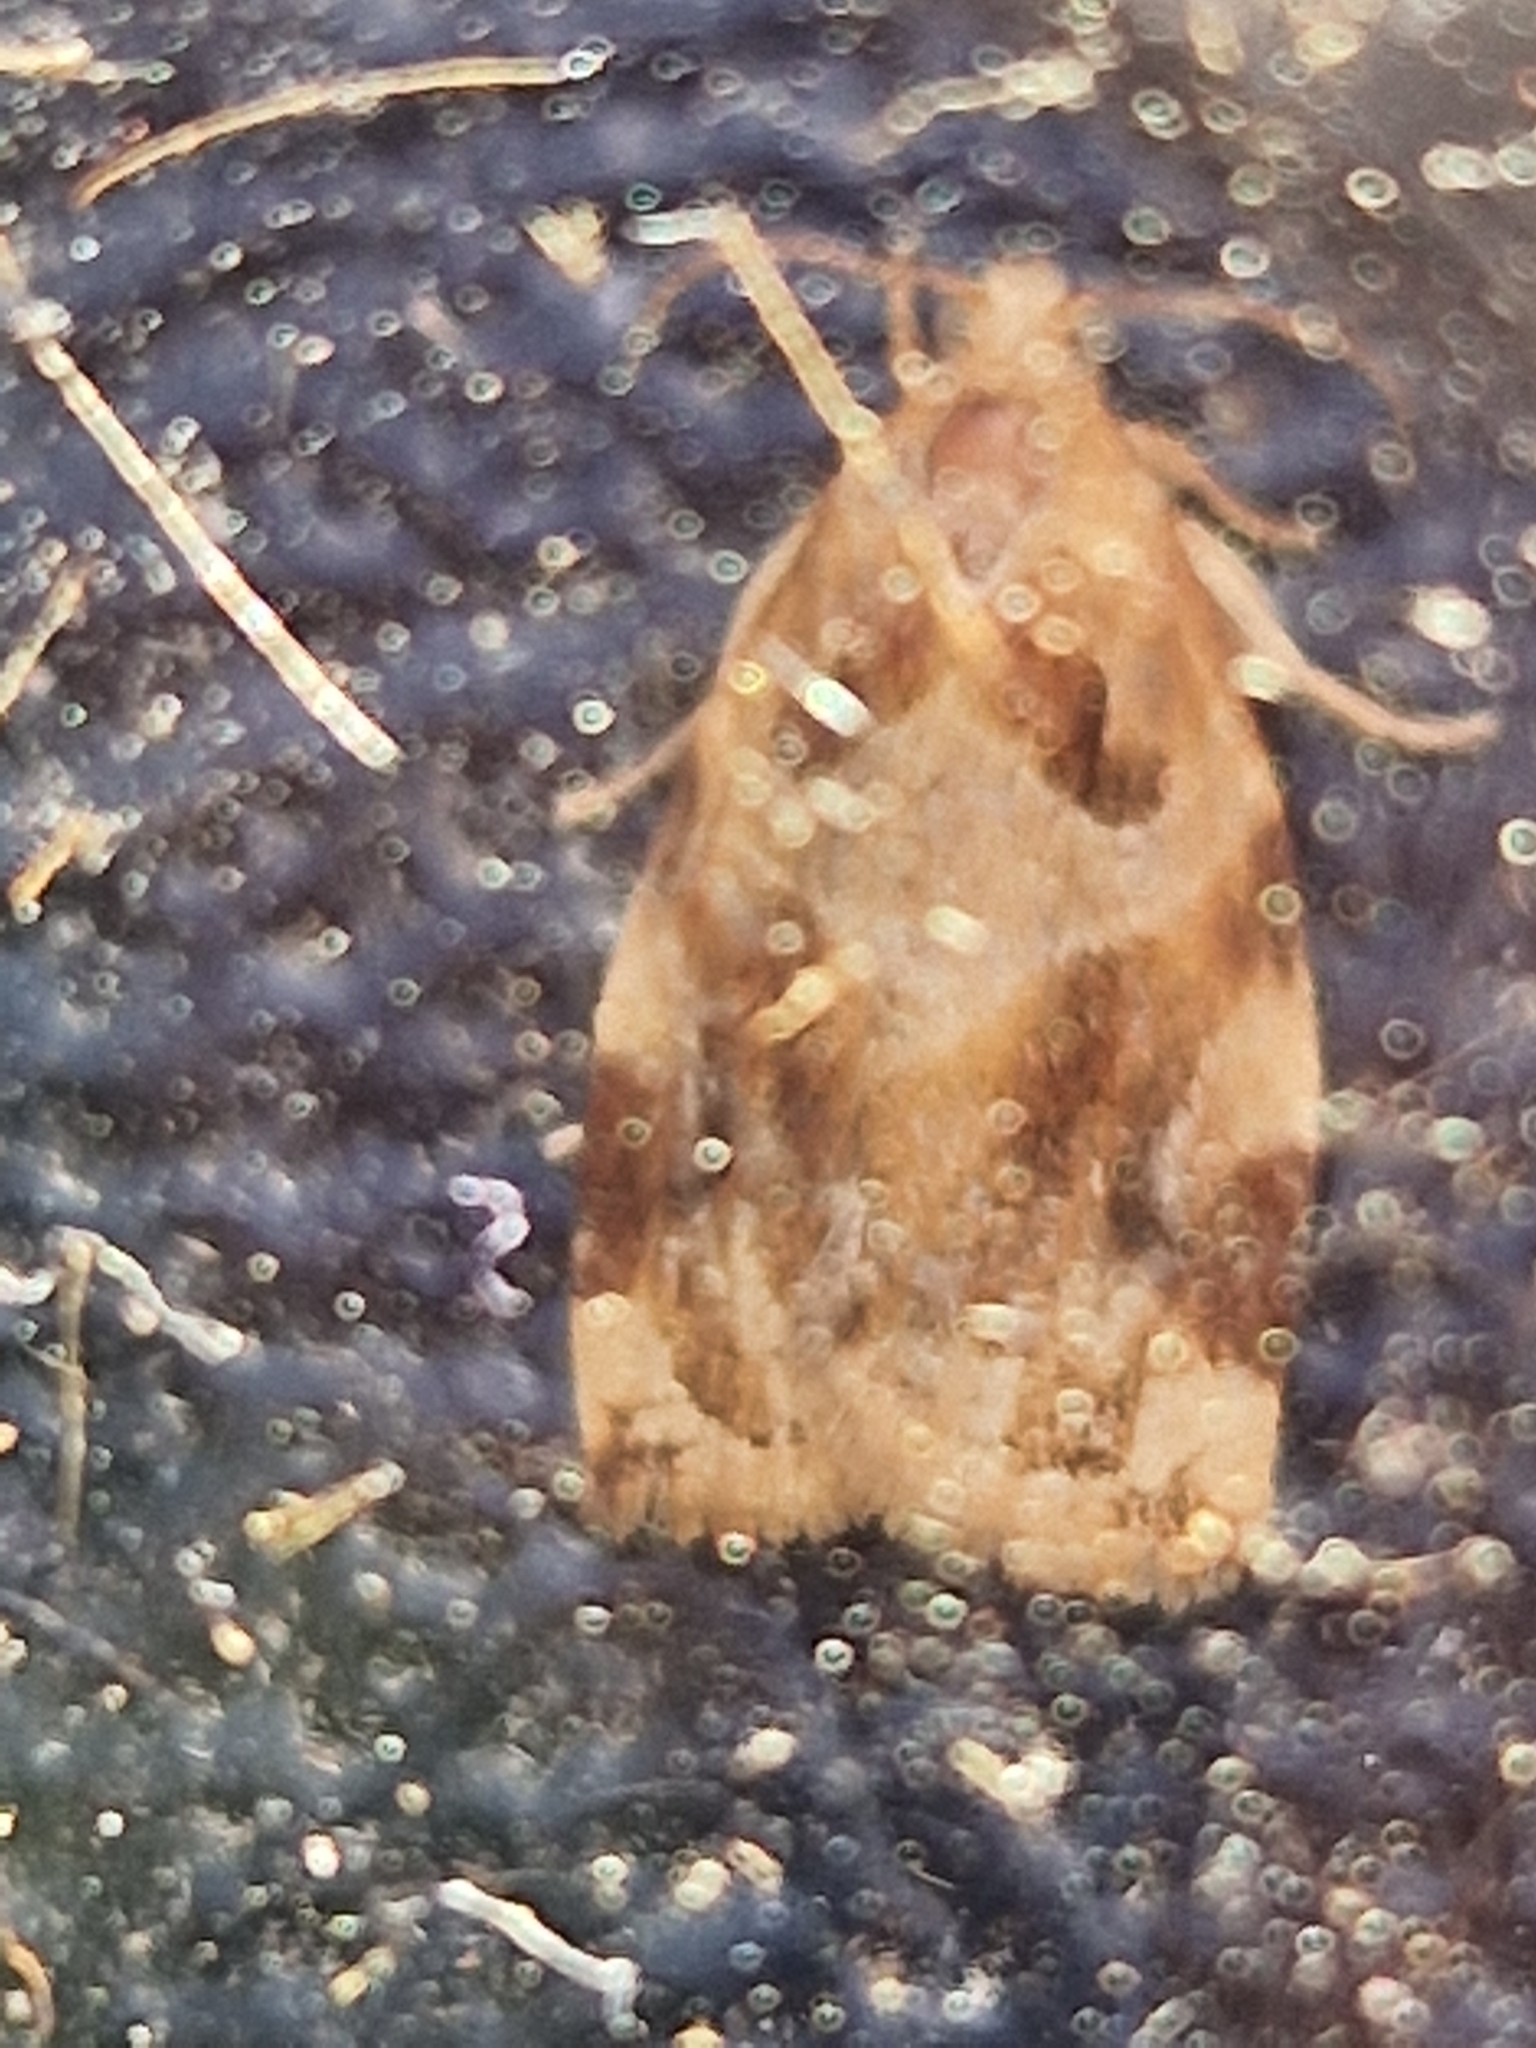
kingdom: Animalia
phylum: Arthropoda
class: Insecta
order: Lepidoptera
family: Tortricidae
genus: Archips
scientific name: Archips xylosteana
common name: Variegated golden tortrix
